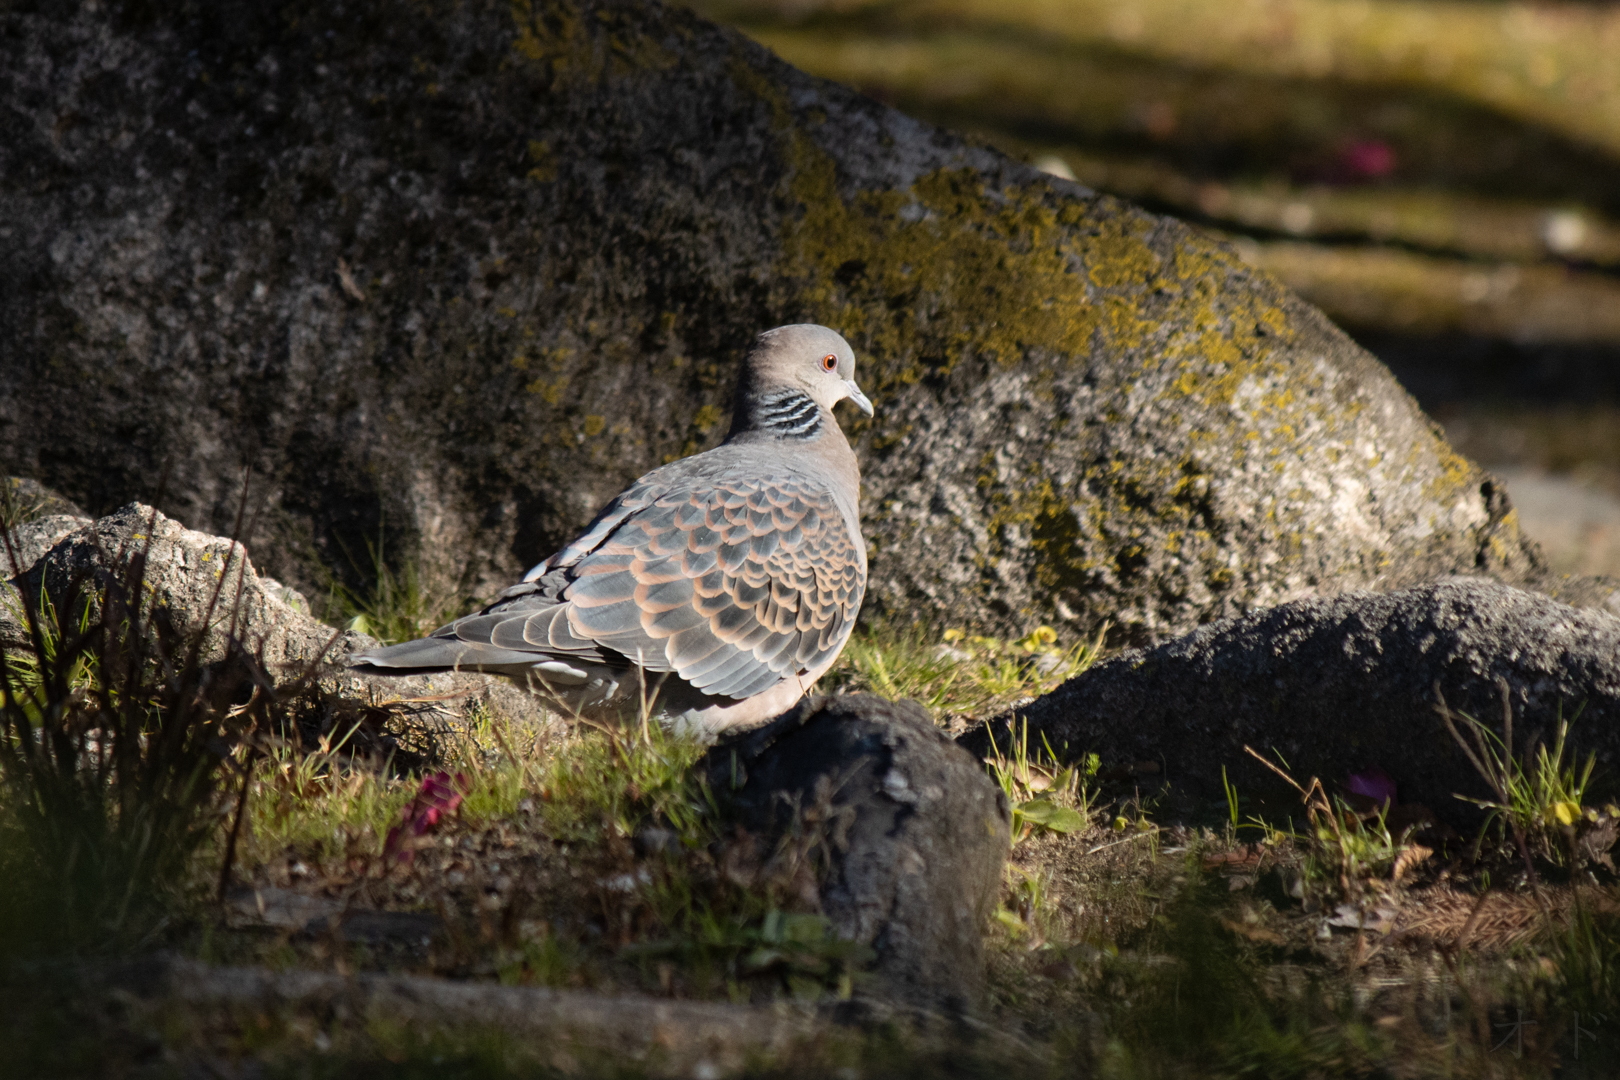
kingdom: Animalia
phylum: Chordata
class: Aves
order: Columbiformes
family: Columbidae
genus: Streptopelia
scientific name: Streptopelia orientalis
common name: Oriental turtle dove
